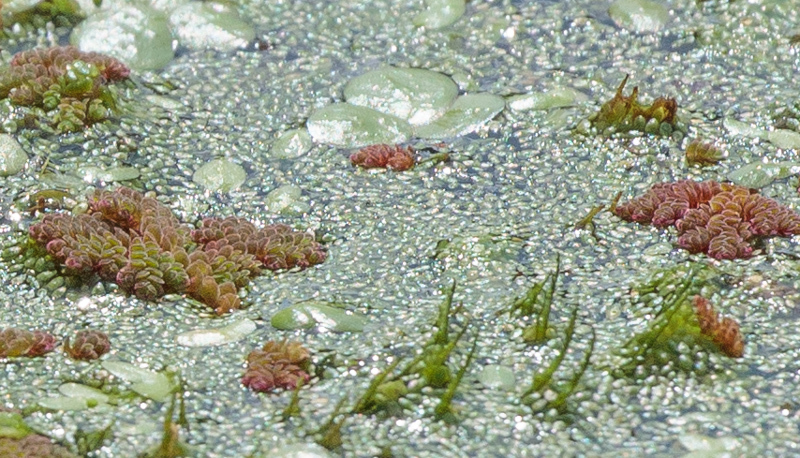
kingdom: Plantae
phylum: Tracheophyta
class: Polypodiopsida
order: Salviniales
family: Salviniaceae
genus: Azolla
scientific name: Azolla caroliniana
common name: Carolina mosquitofern
